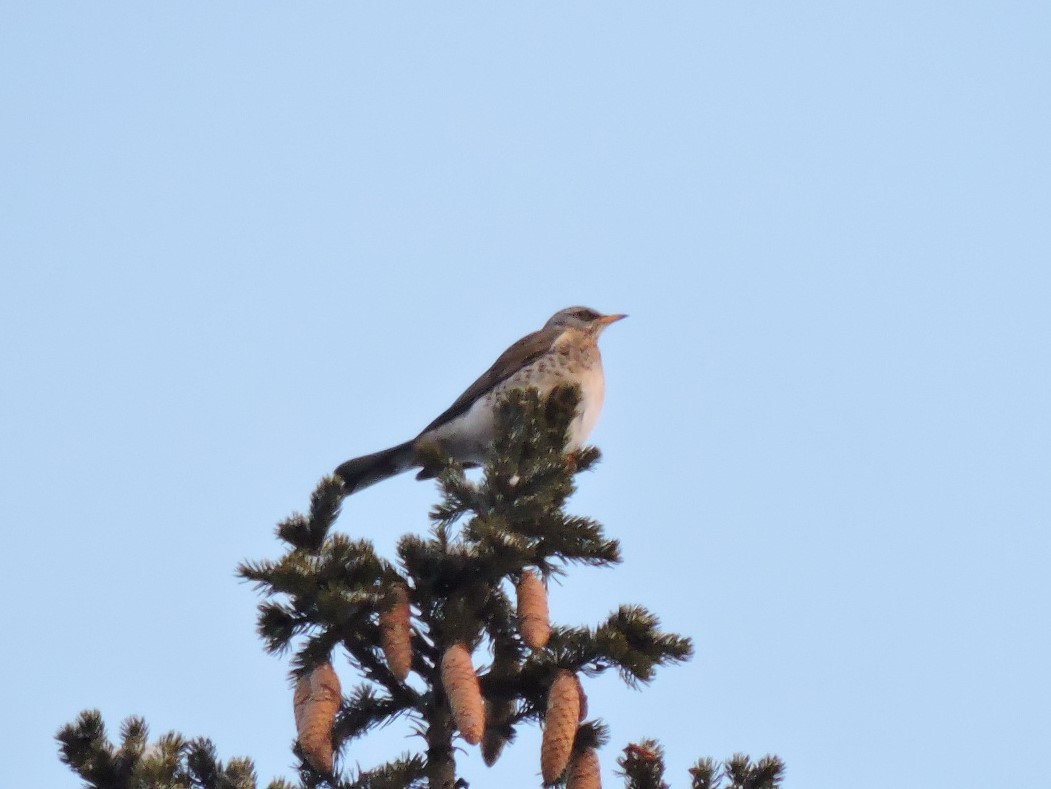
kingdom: Animalia
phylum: Chordata
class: Aves
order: Passeriformes
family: Turdidae
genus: Turdus
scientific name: Turdus pilaris
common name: Fieldfare
